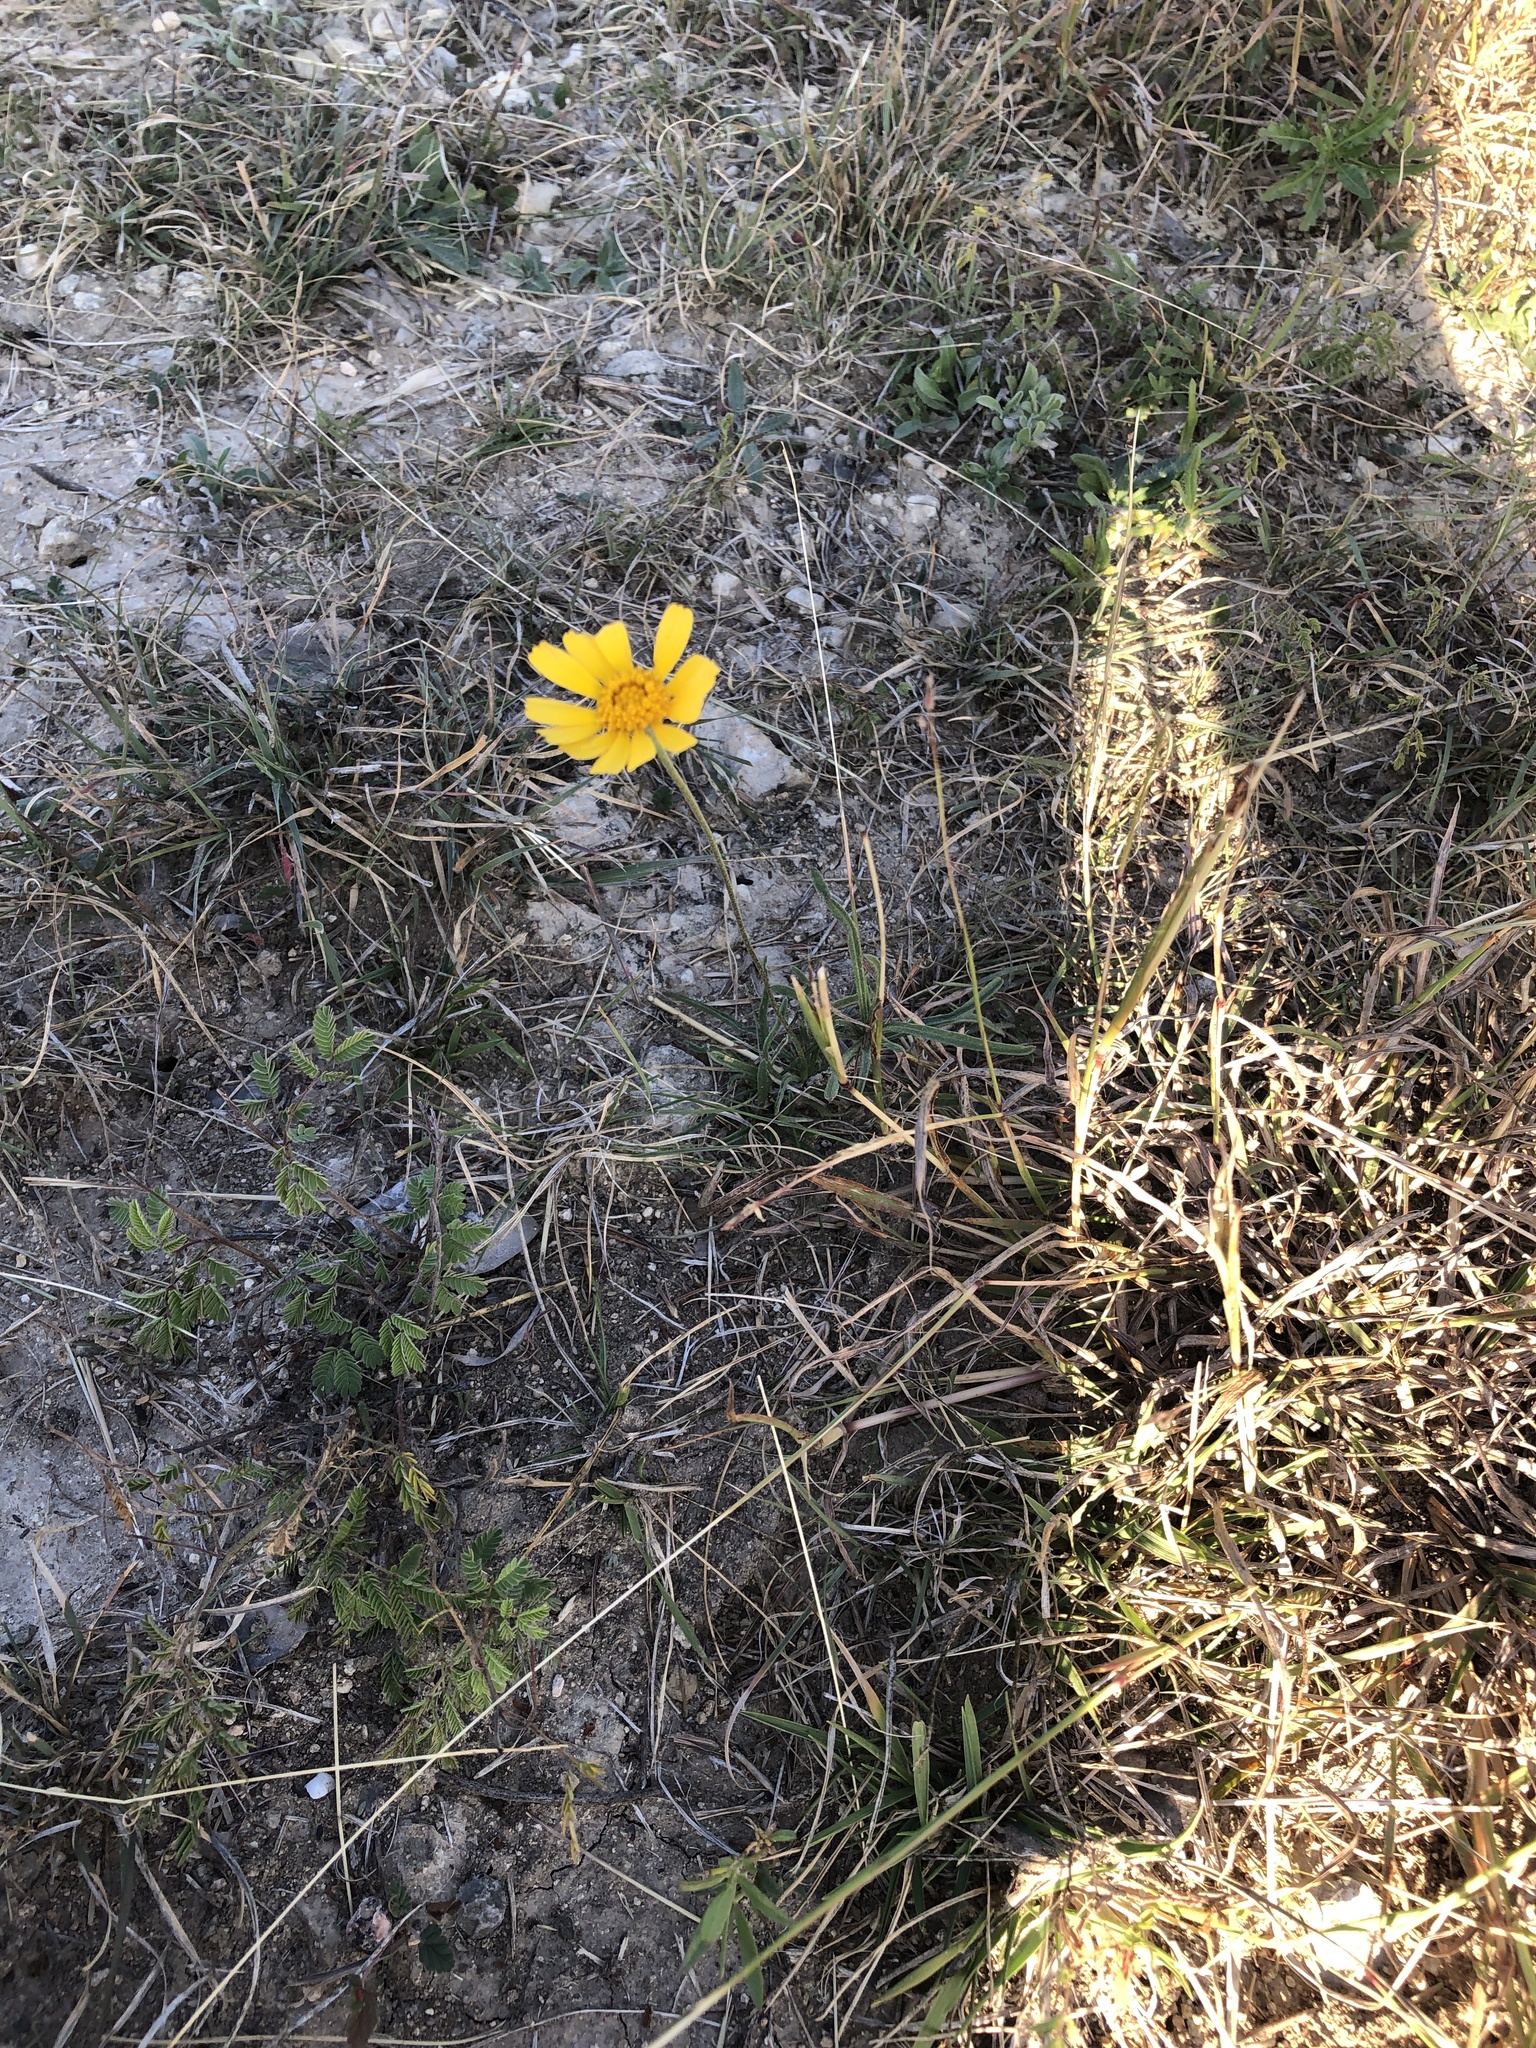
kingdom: Plantae
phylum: Tracheophyta
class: Magnoliopsida
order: Asterales
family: Asteraceae
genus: Tetraneuris
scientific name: Tetraneuris scaposa
